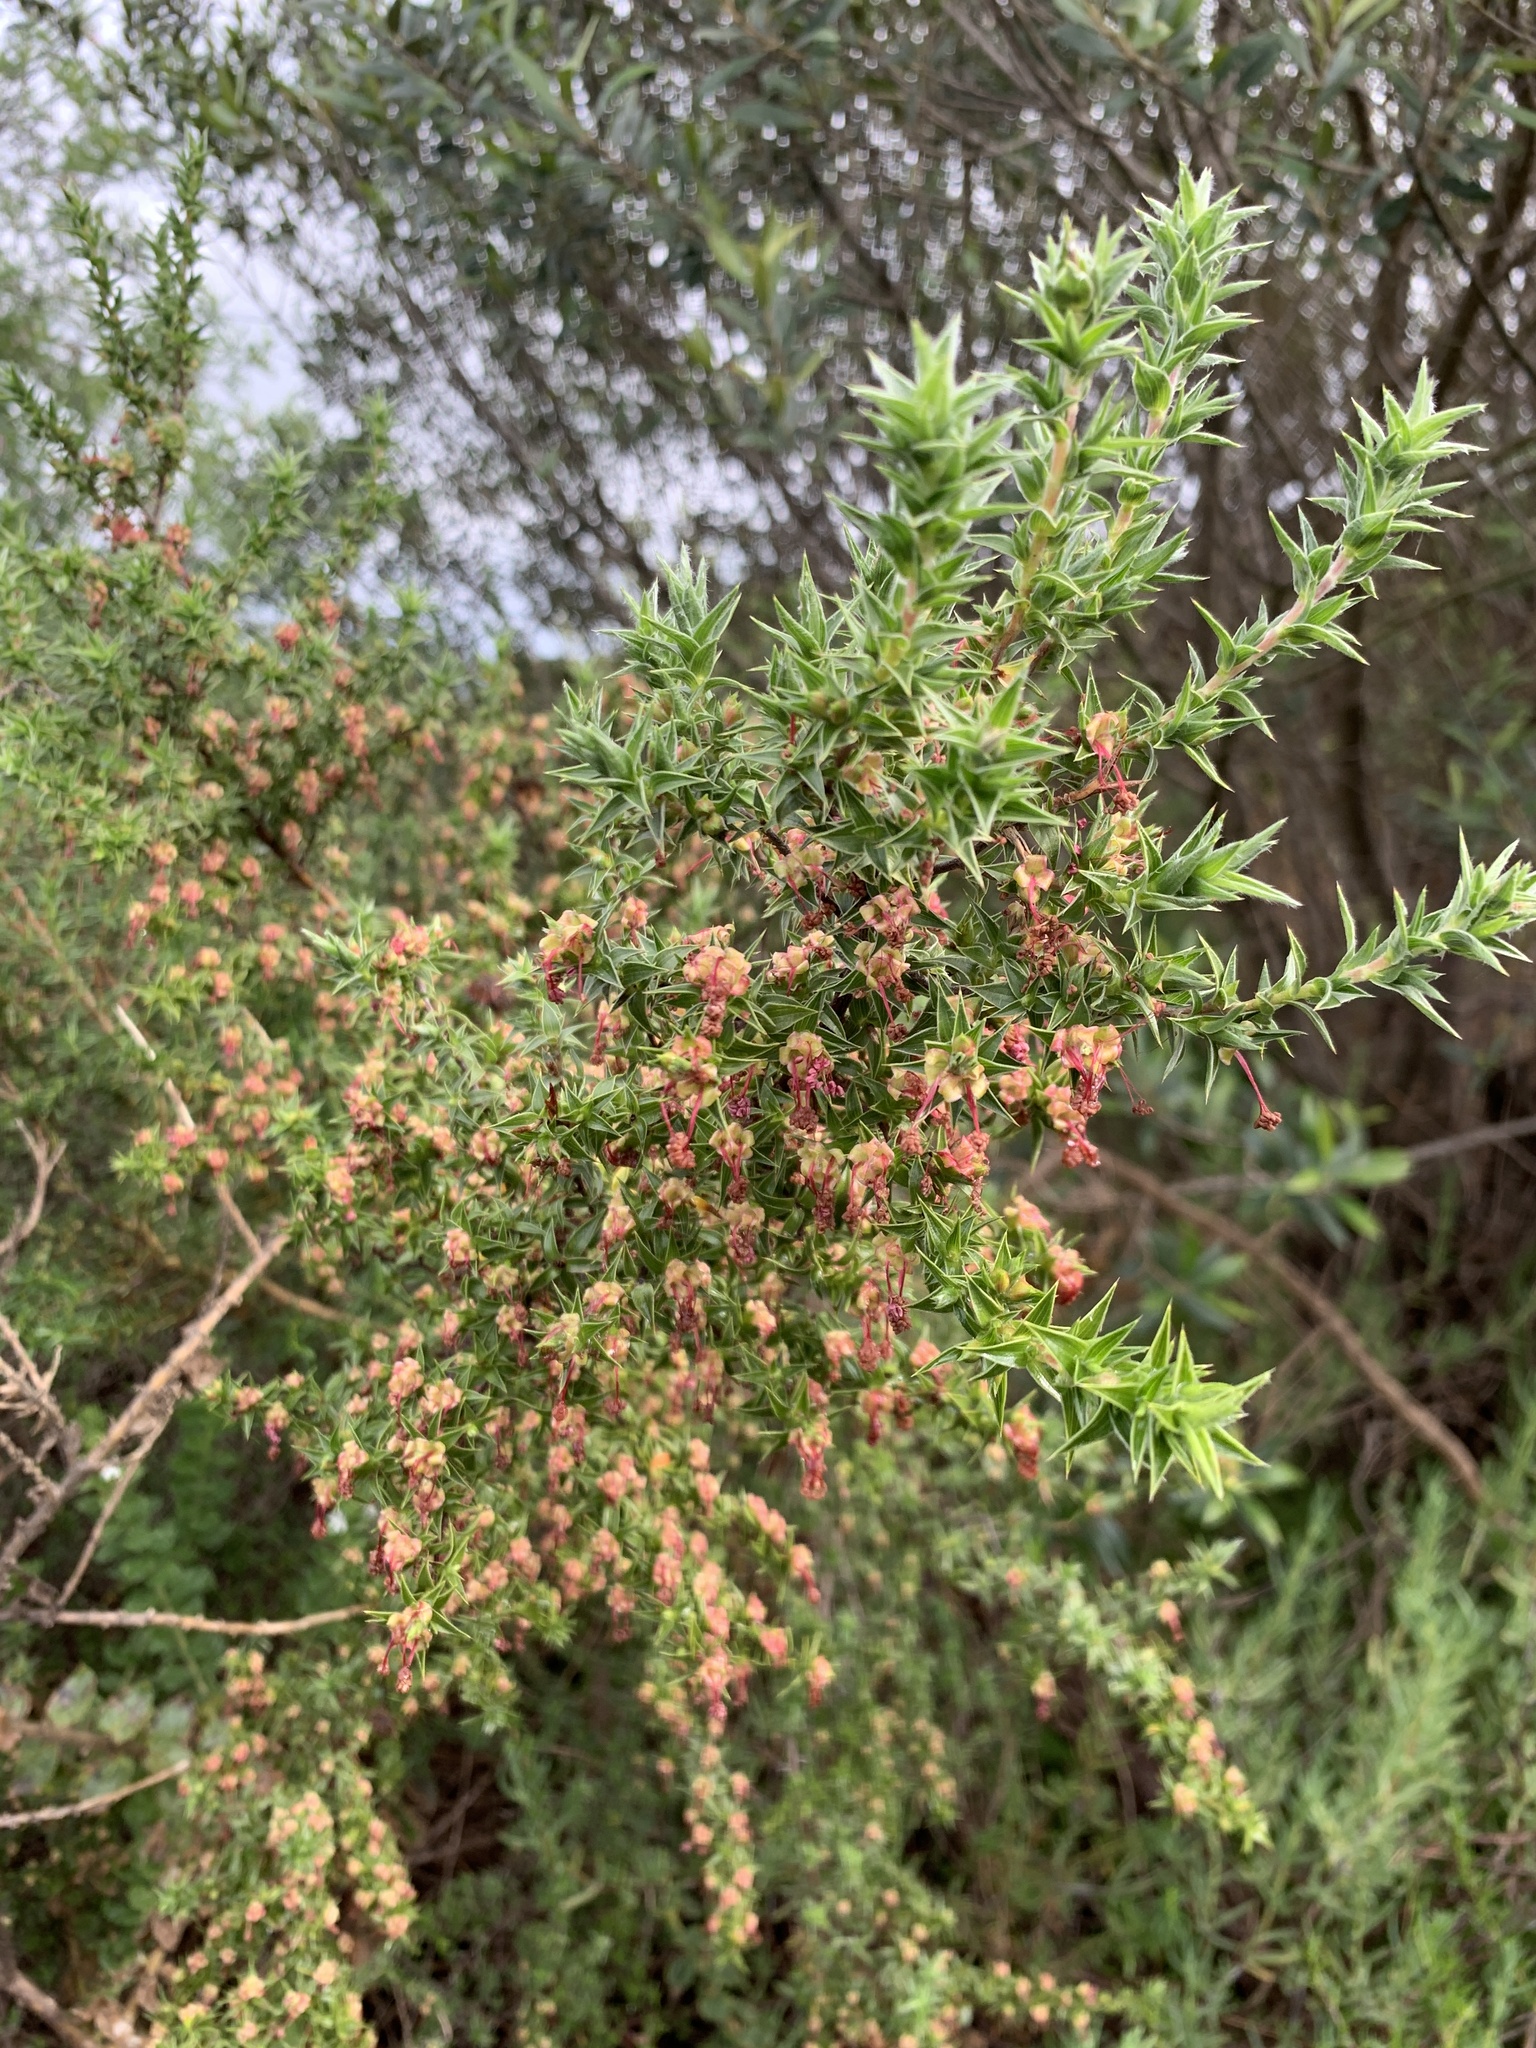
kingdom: Plantae
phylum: Tracheophyta
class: Magnoliopsida
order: Rosales
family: Rosaceae
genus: Cliffortia
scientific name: Cliffortia ruscifolia
